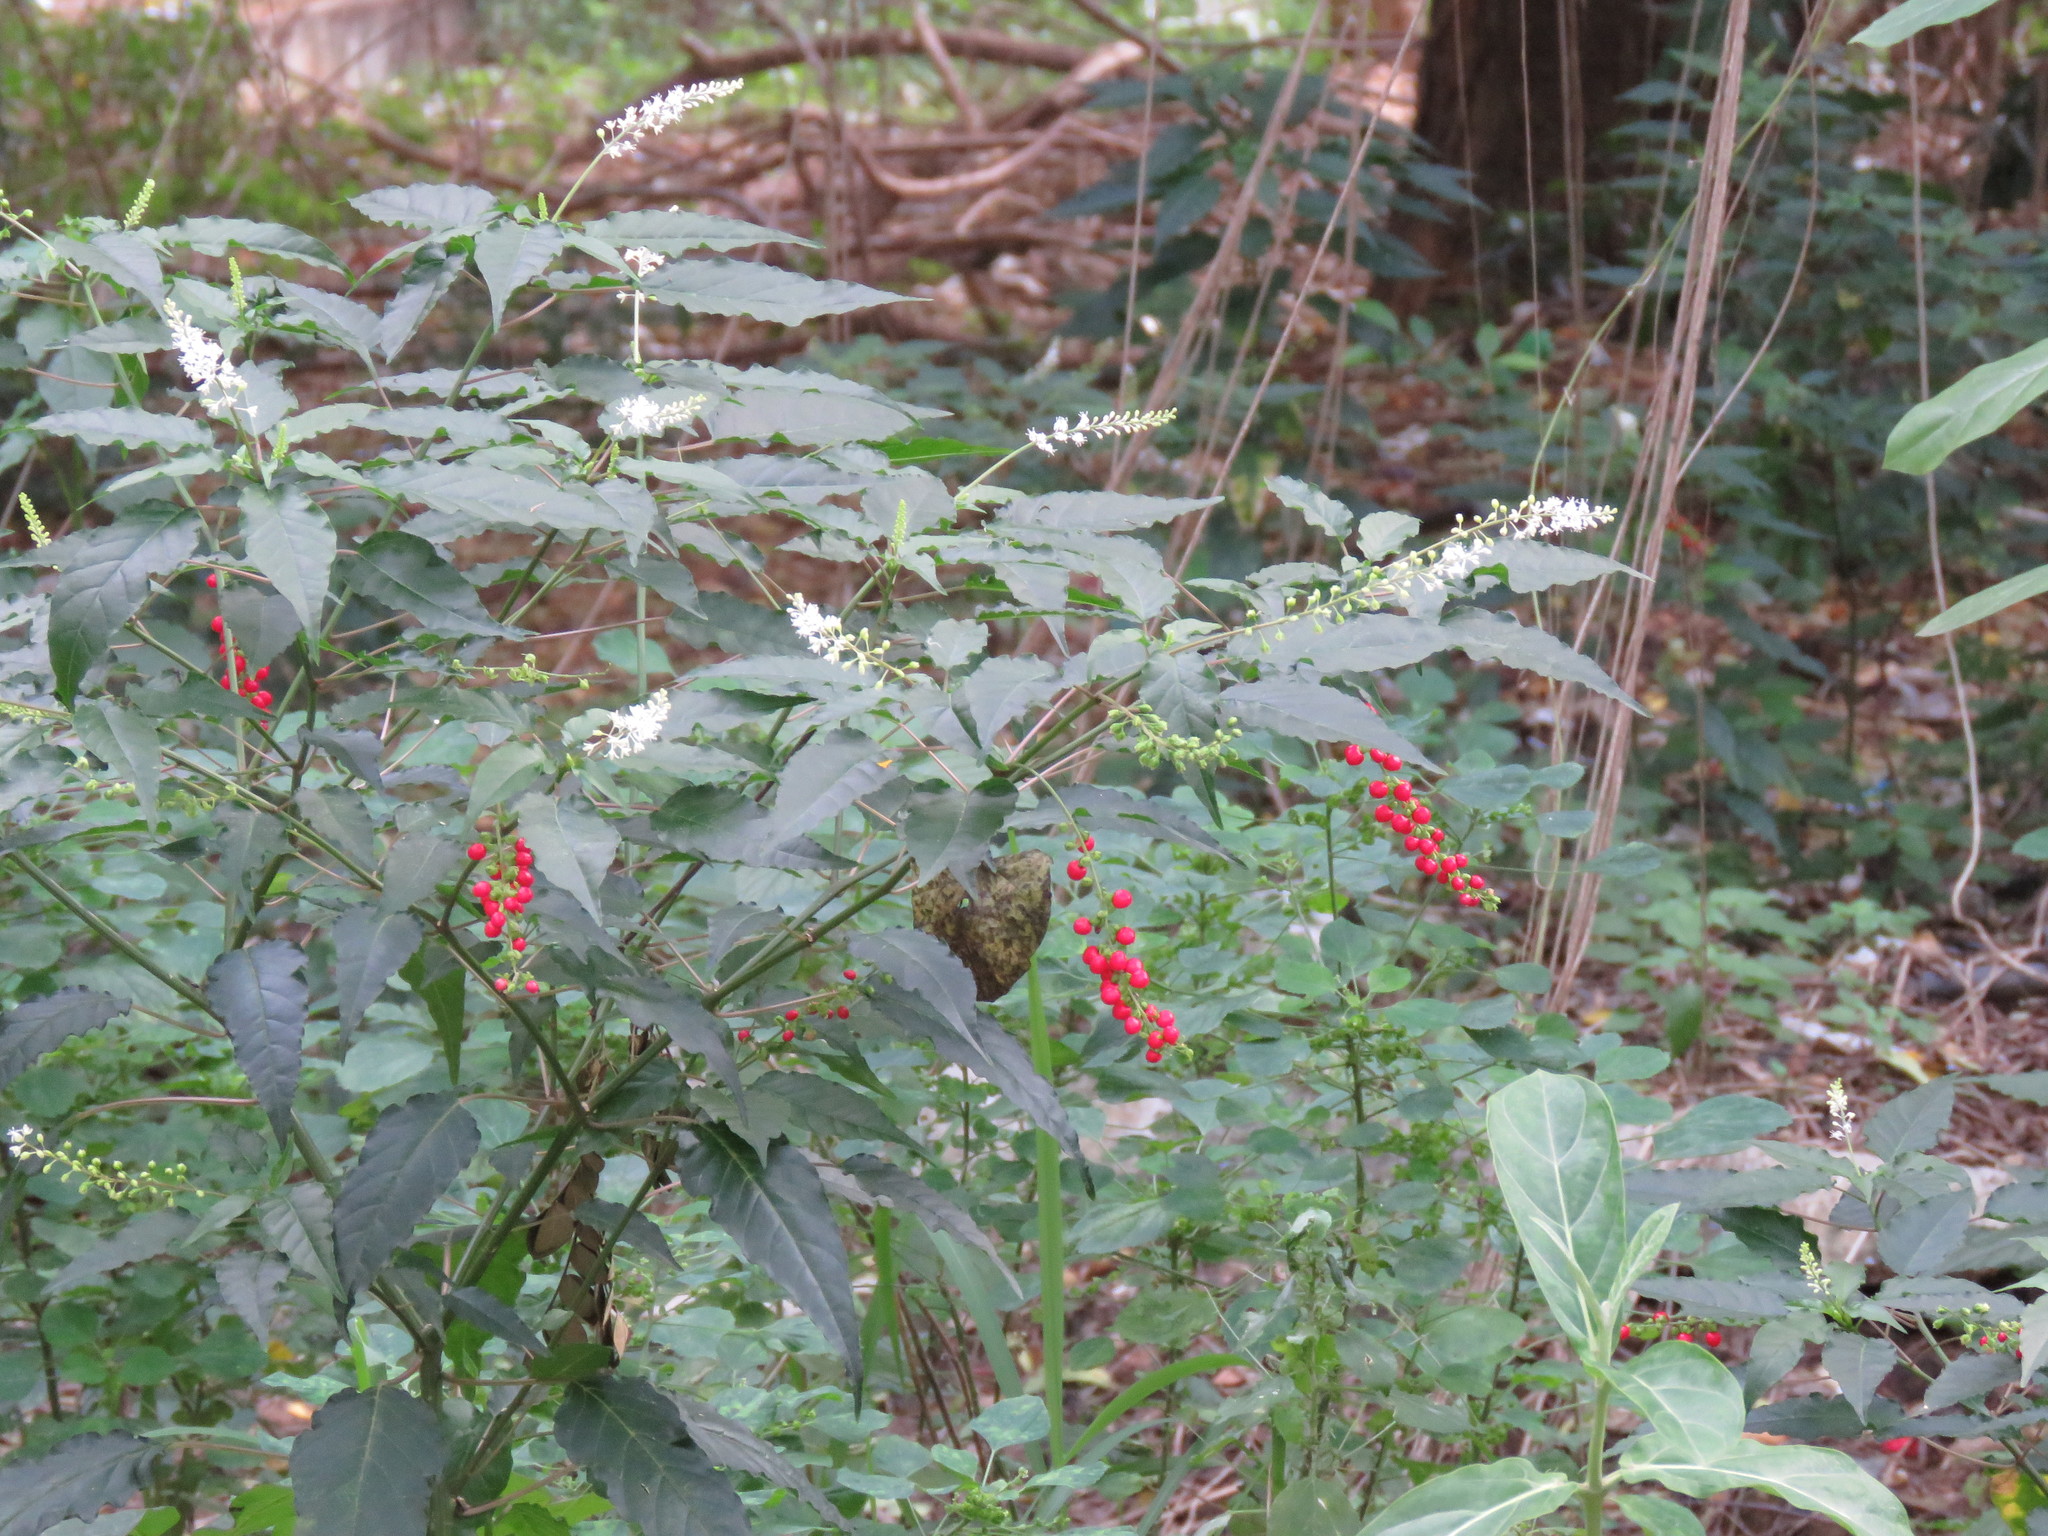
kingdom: Plantae
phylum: Tracheophyta
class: Magnoliopsida
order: Caryophyllales
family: Phytolaccaceae
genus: Rivina
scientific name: Rivina humilis
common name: Rougeplant
